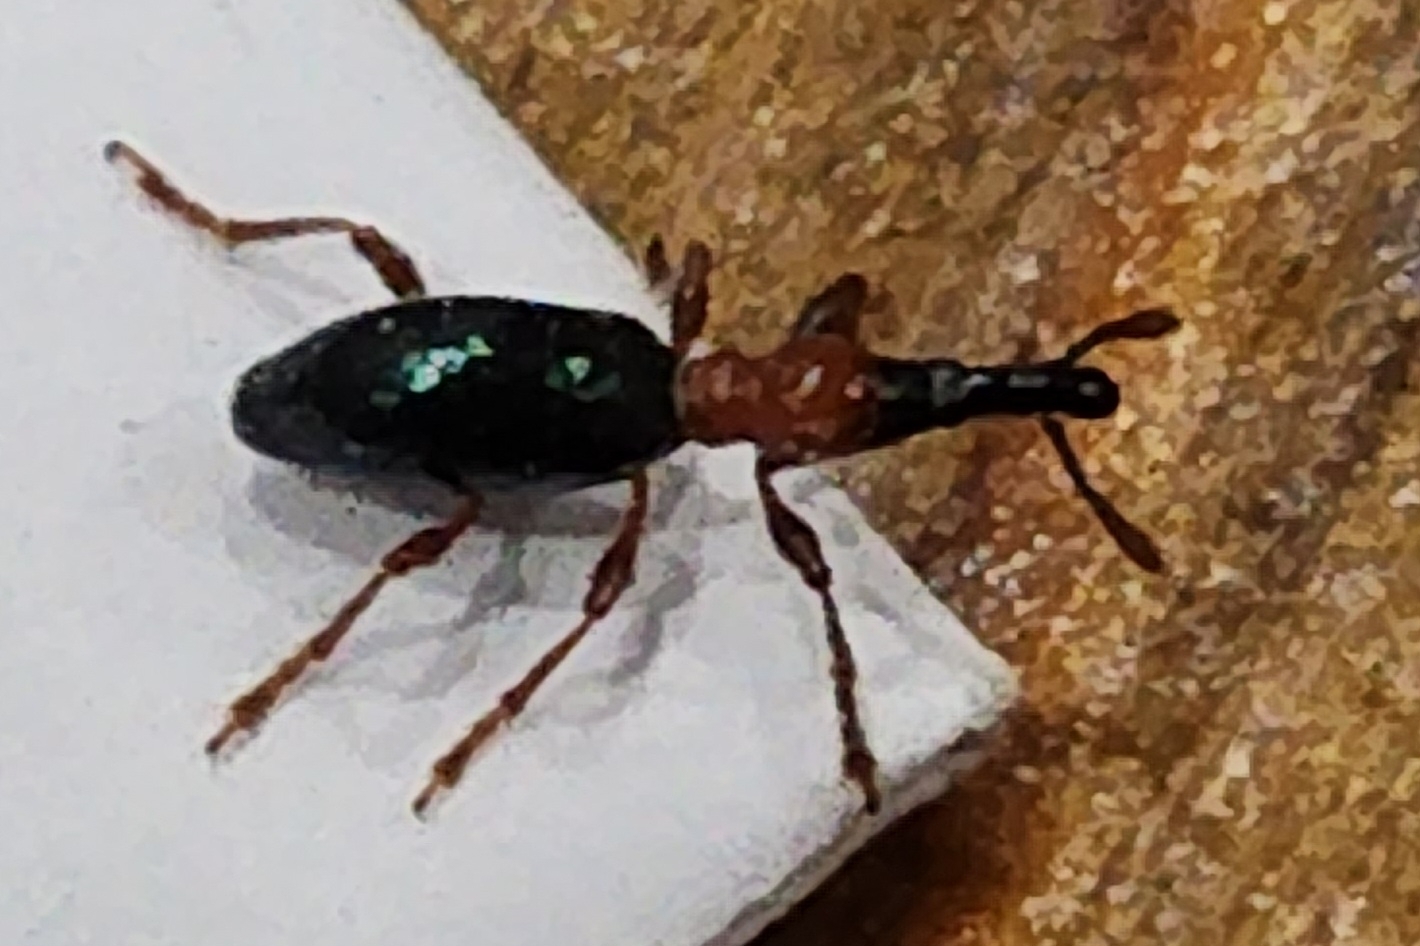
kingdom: Animalia
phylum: Arthropoda
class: Insecta
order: Coleoptera
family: Brentidae
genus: Cylas
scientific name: Cylas formicarius
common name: Sweetpotato weevil
